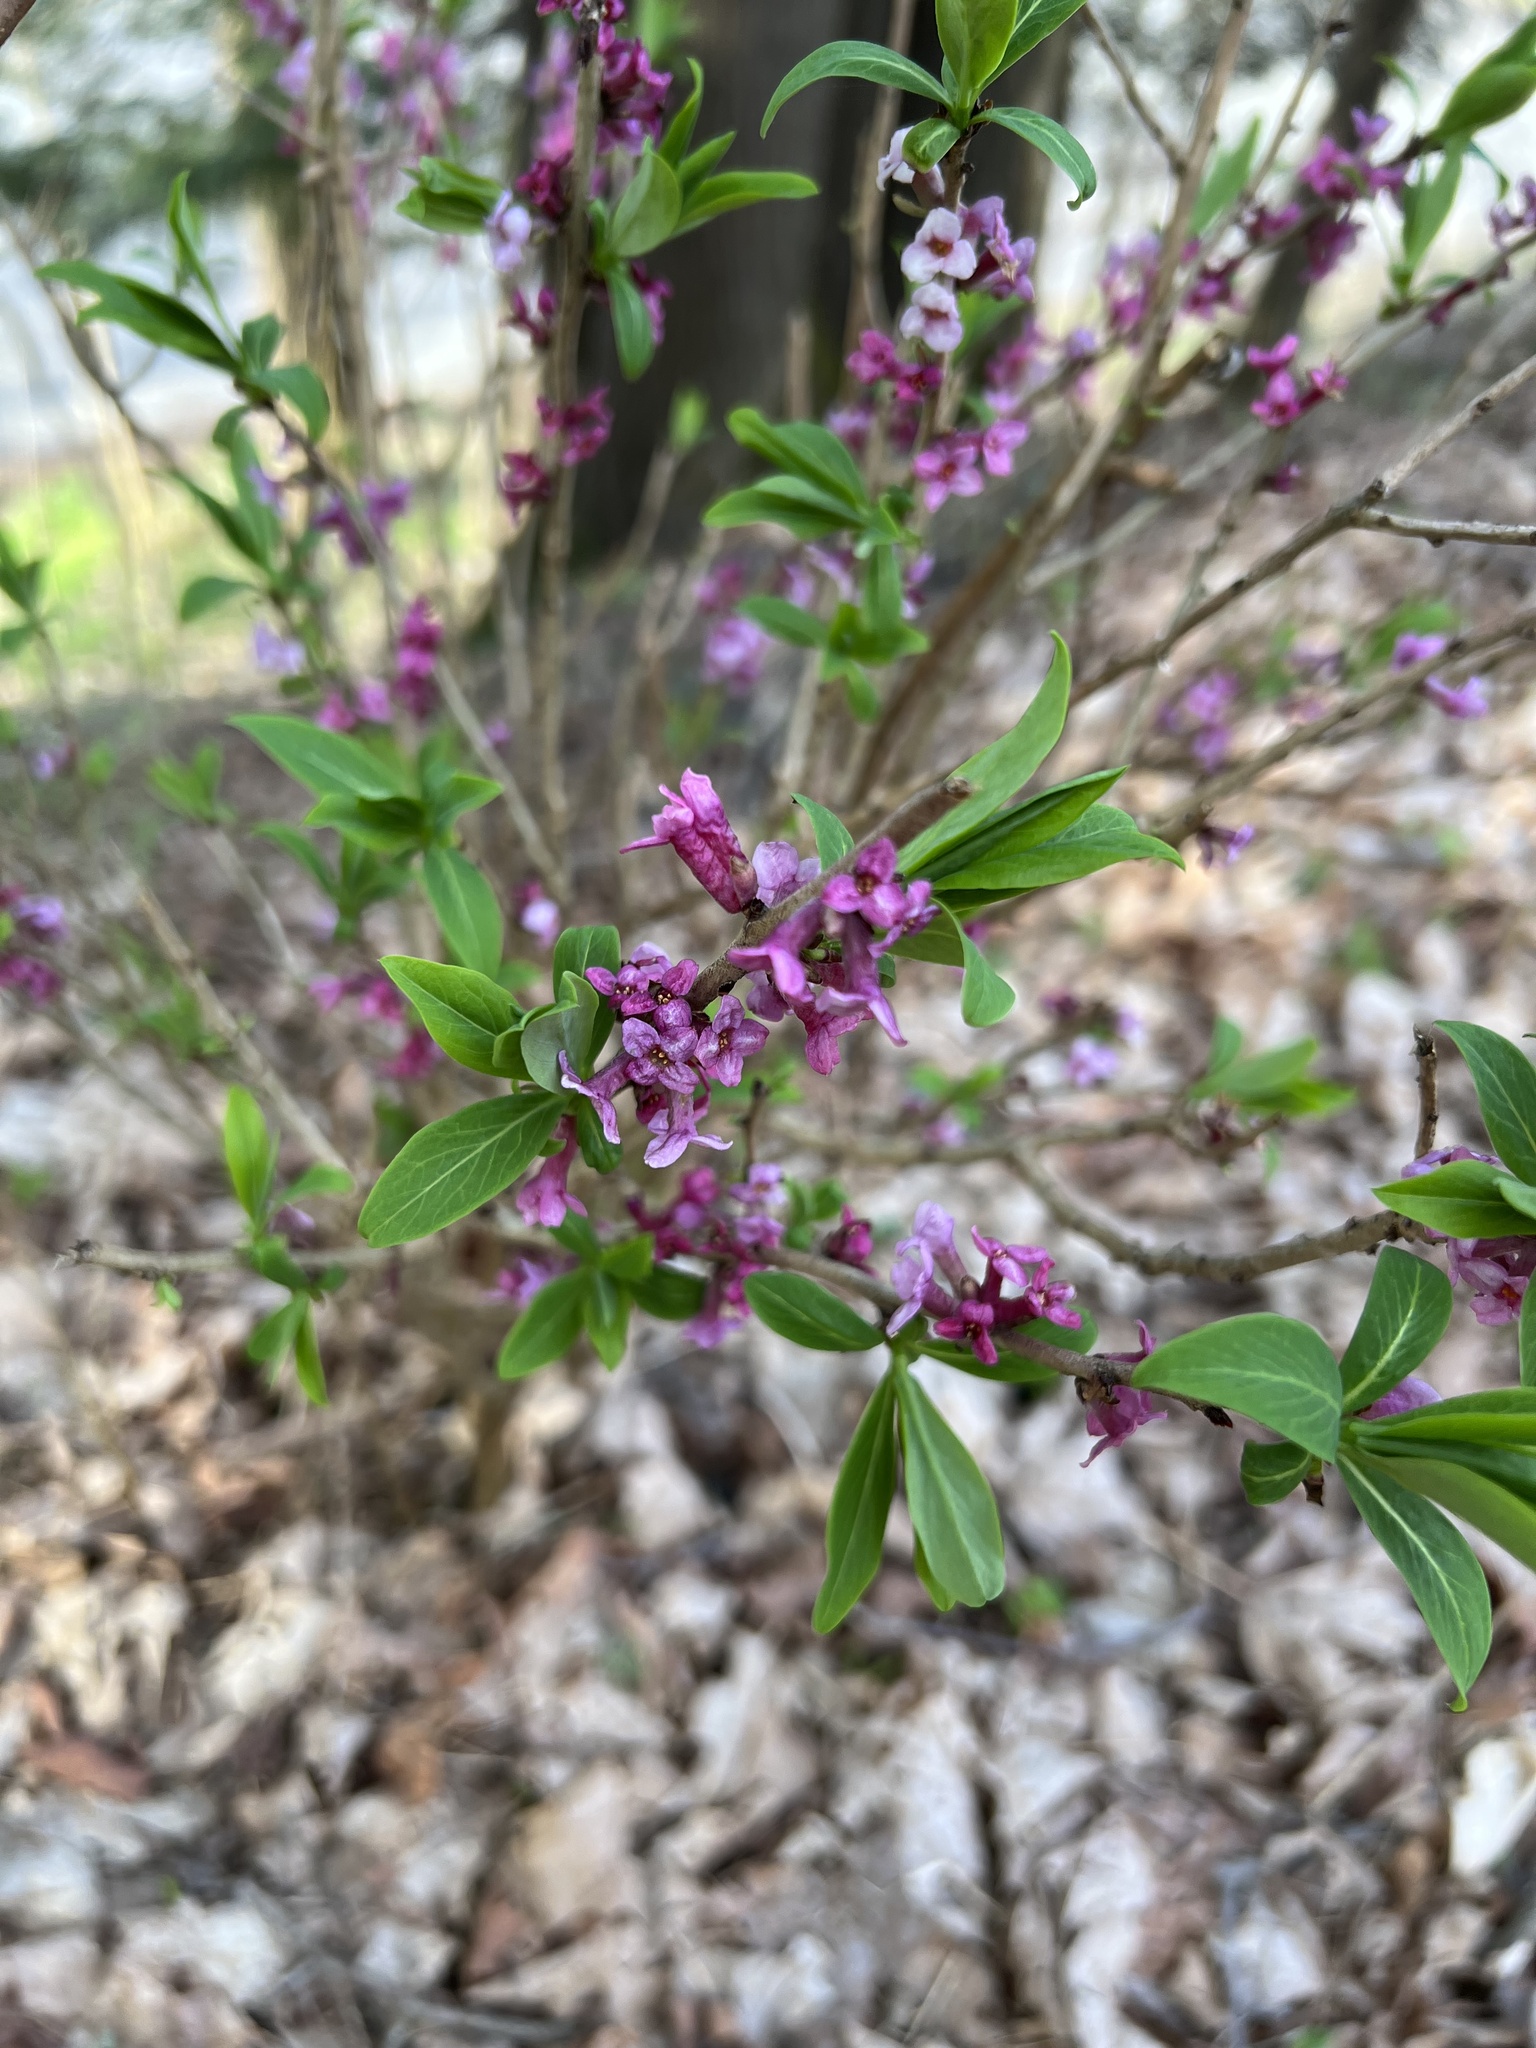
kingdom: Plantae
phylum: Tracheophyta
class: Magnoliopsida
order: Malvales
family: Thymelaeaceae
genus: Daphne
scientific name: Daphne mezereum
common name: Mezereon
